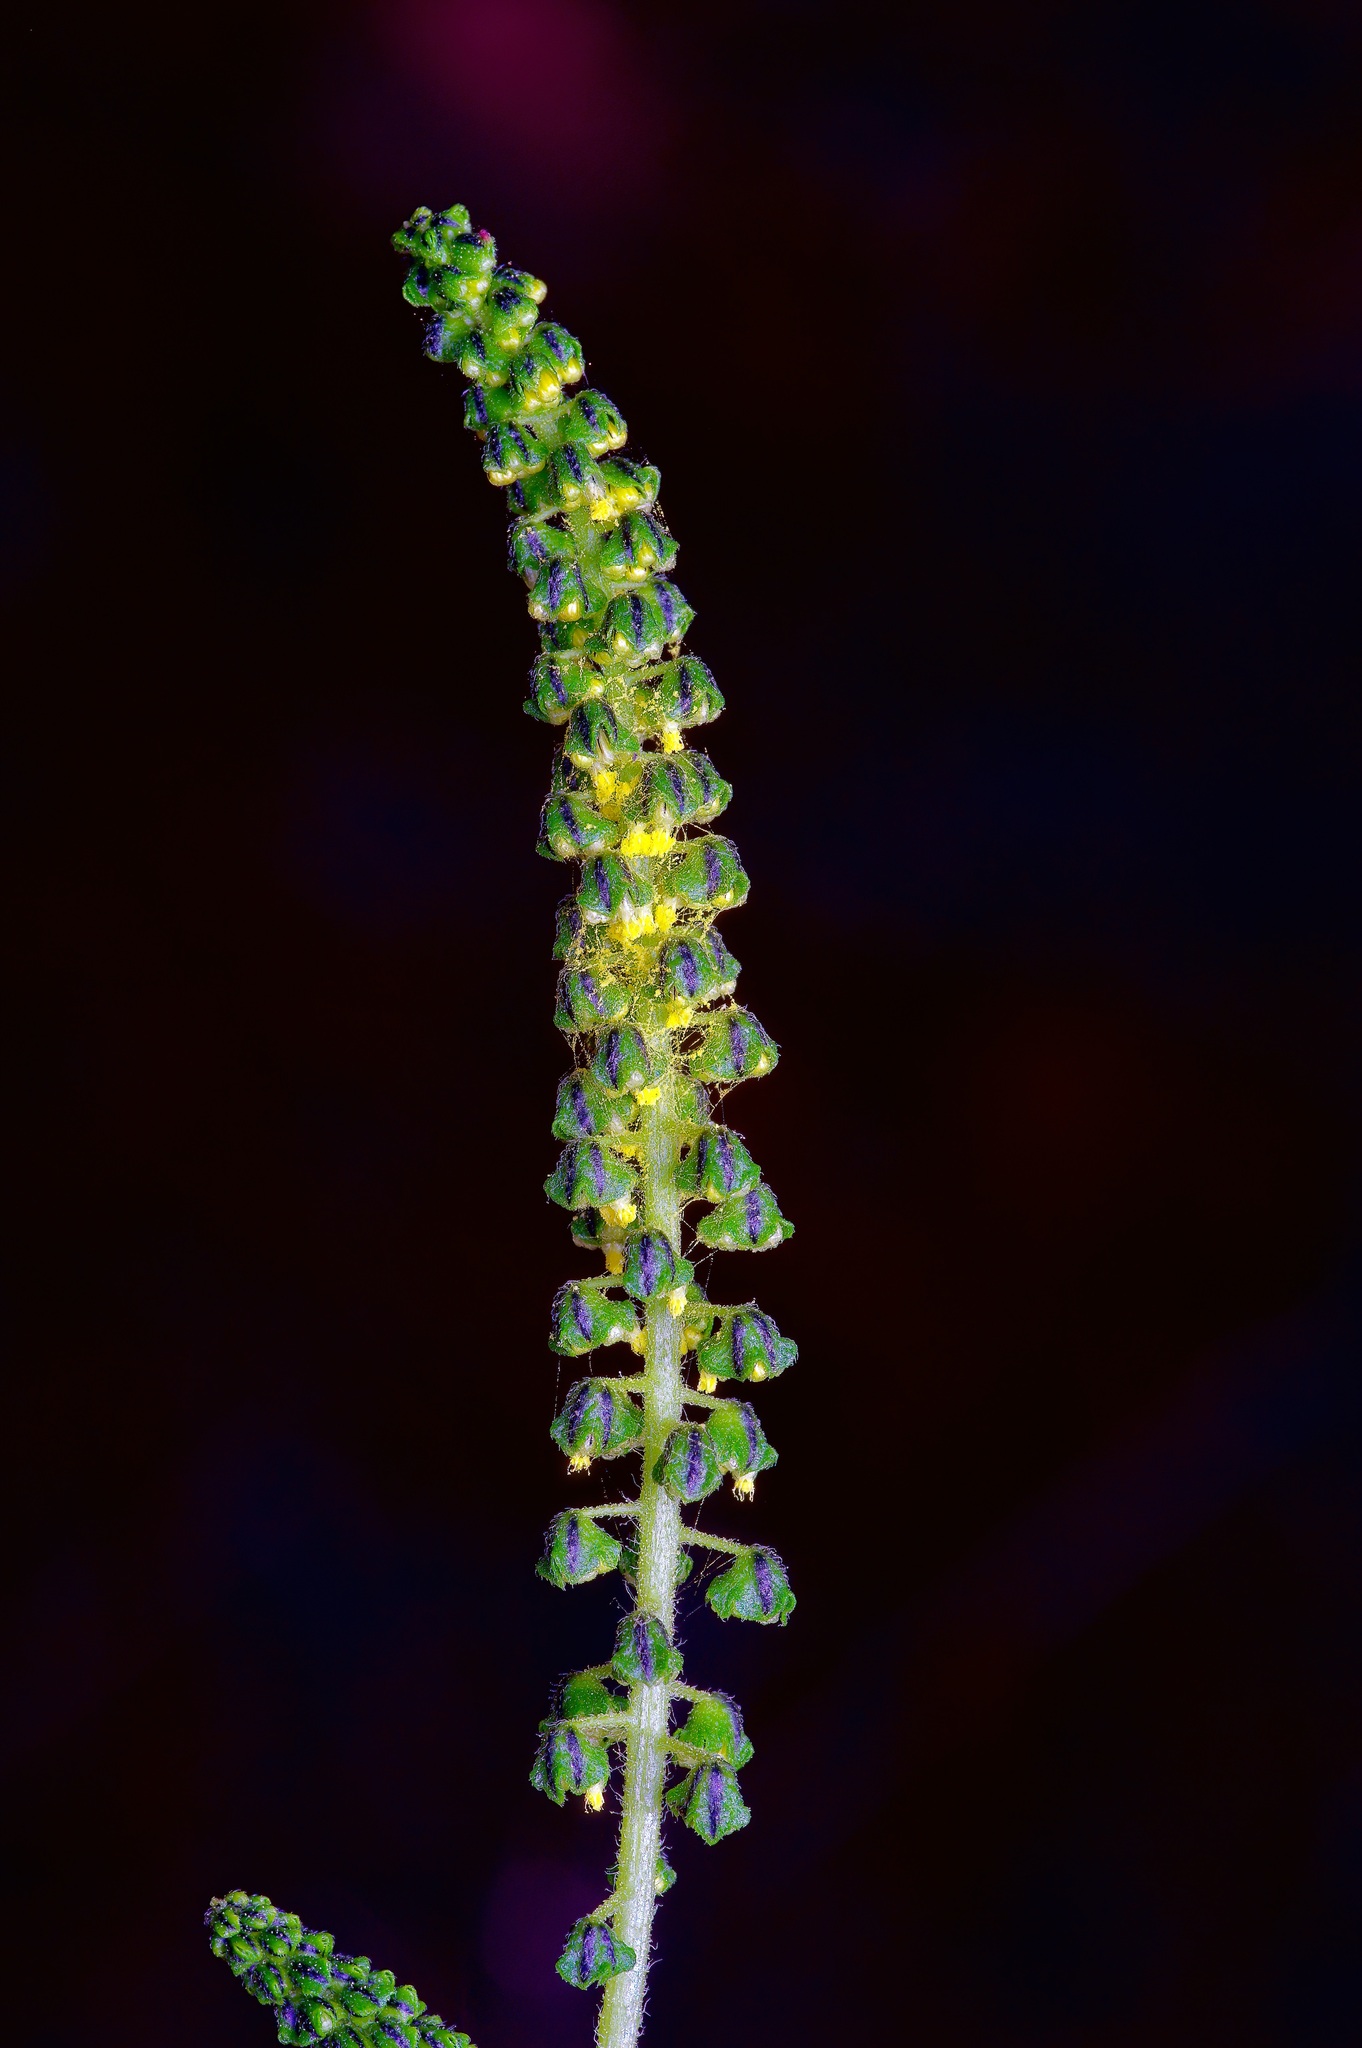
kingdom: Plantae
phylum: Tracheophyta
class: Magnoliopsida
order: Asterales
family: Asteraceae
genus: Ambrosia
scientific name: Ambrosia trifida
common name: Giant ragweed
